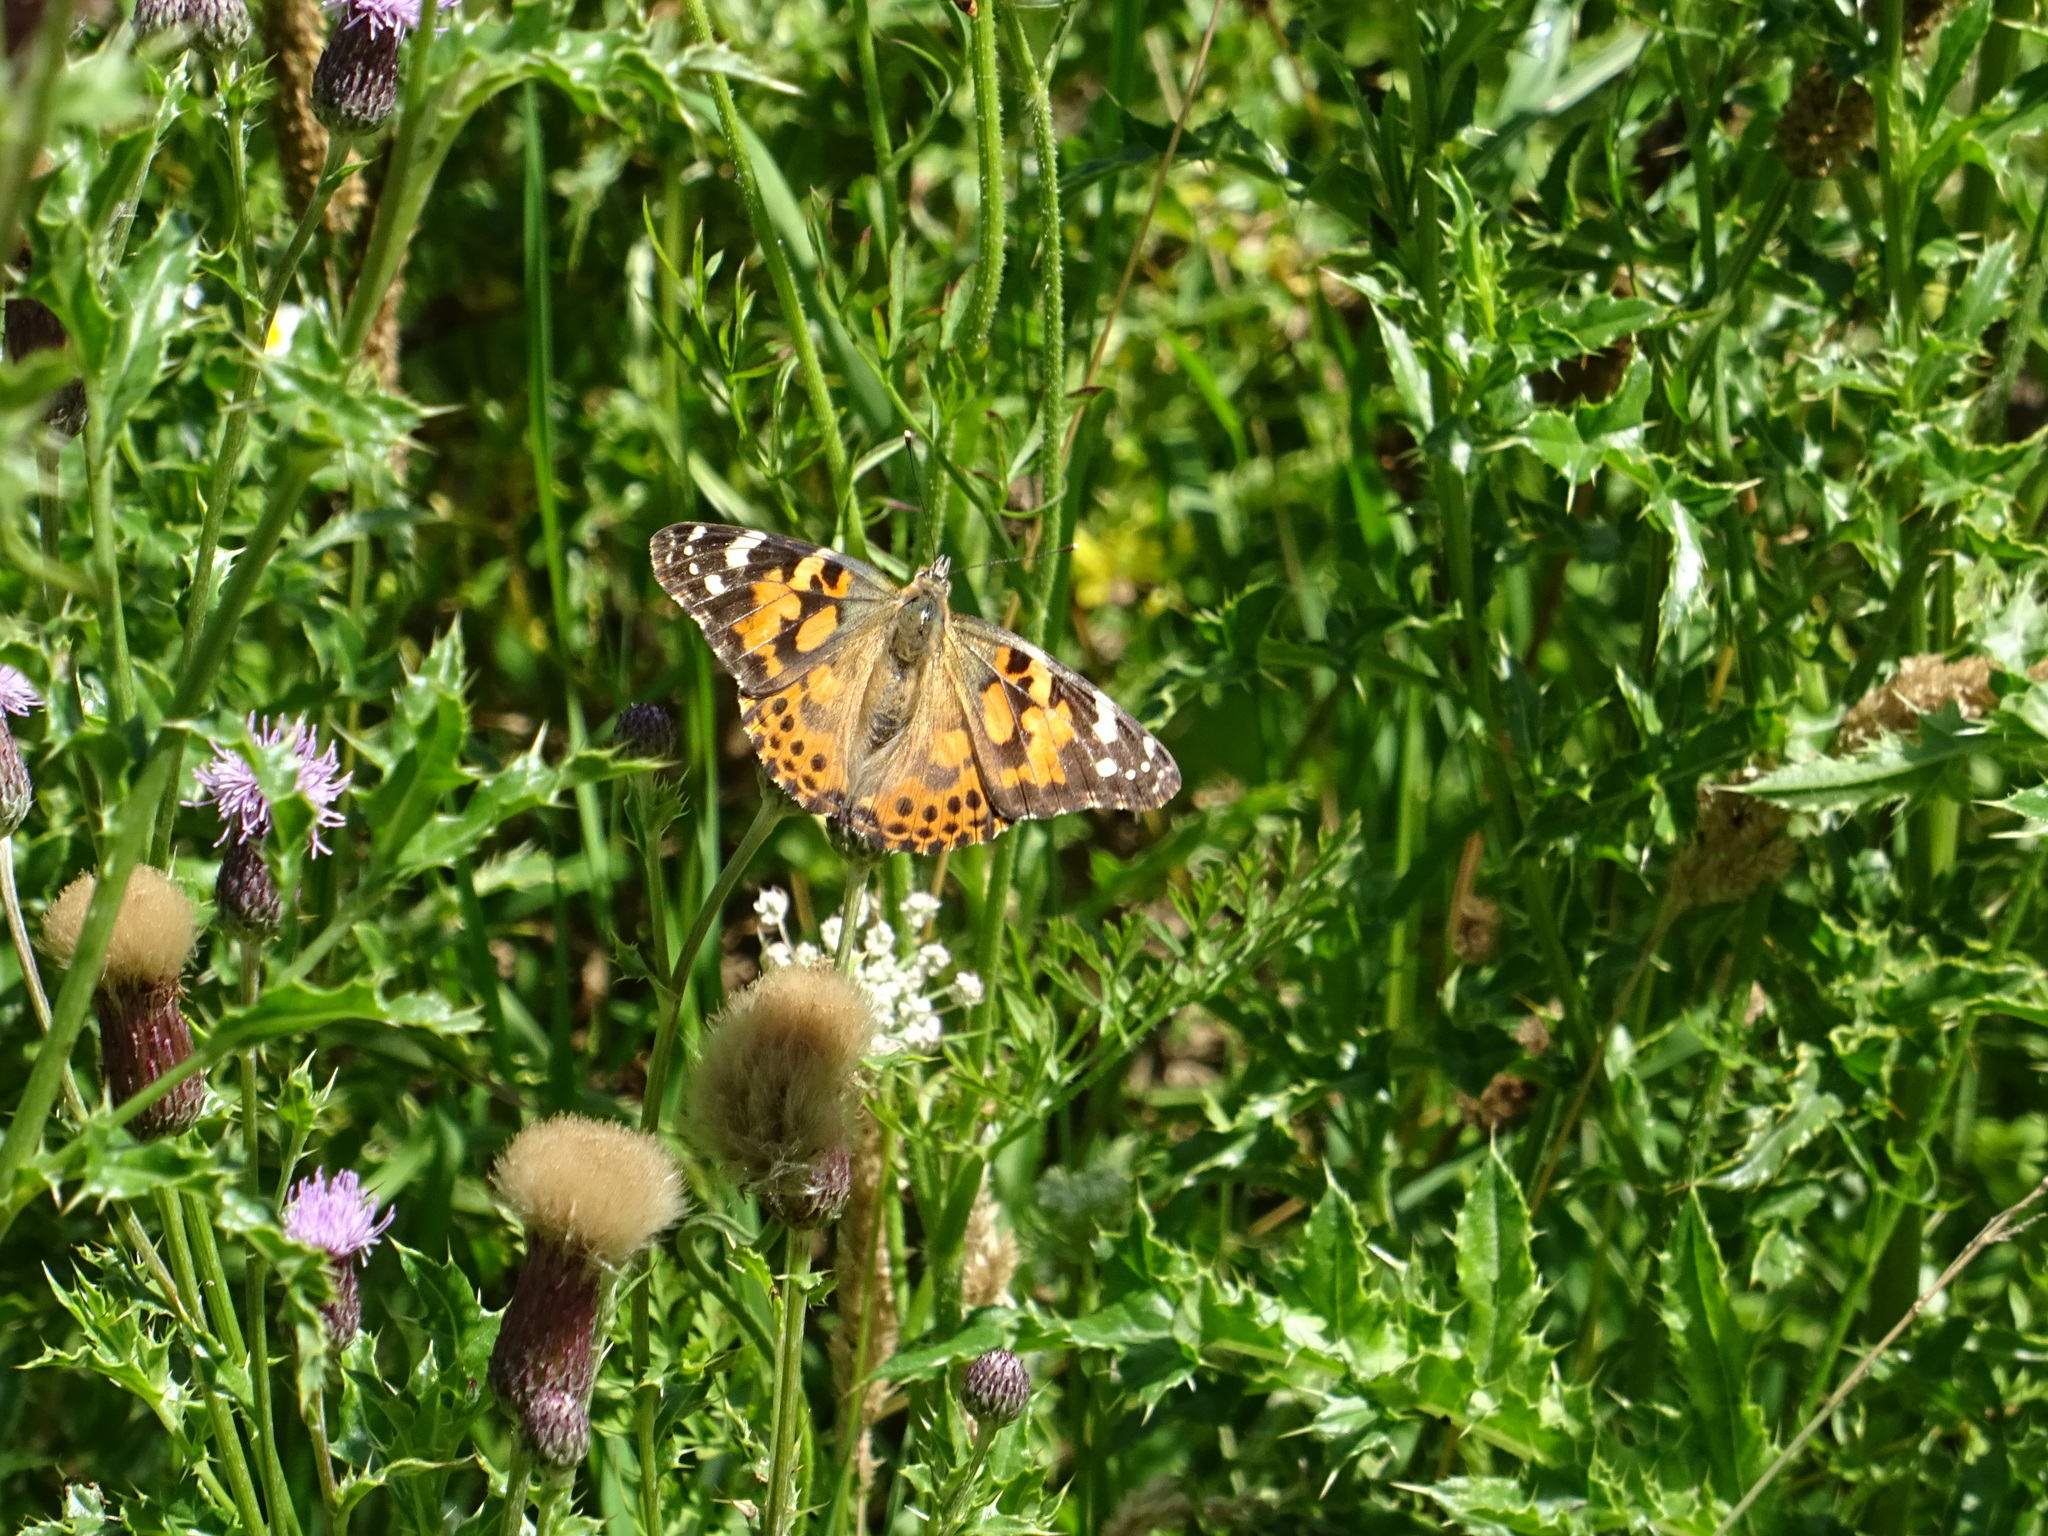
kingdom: Animalia
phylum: Arthropoda
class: Insecta
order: Lepidoptera
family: Nymphalidae
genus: Vanessa
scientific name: Vanessa cardui
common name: Painted lady
